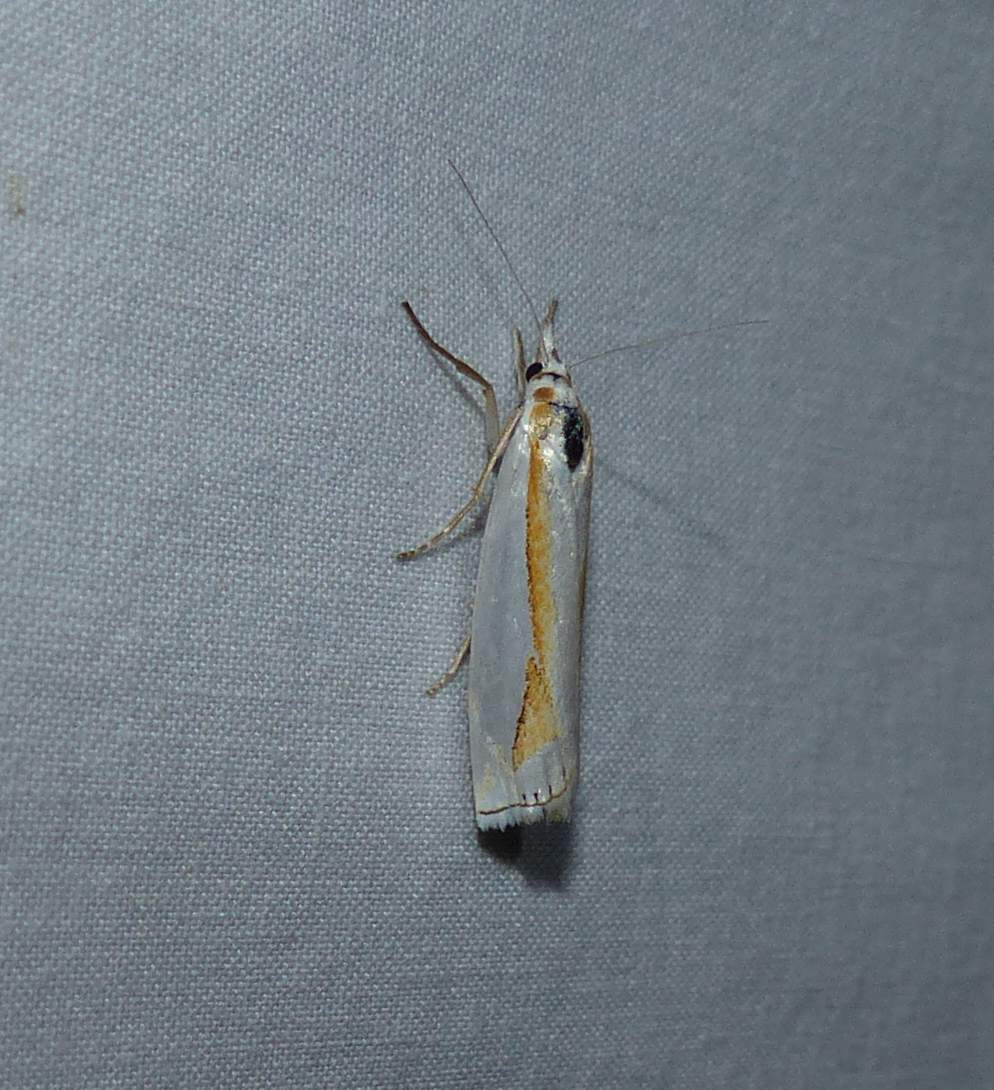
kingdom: Animalia
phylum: Arthropoda
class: Insecta
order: Lepidoptera
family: Crambidae
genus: Crambus
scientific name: Crambus girardellus
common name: Girard's grass-veneer
